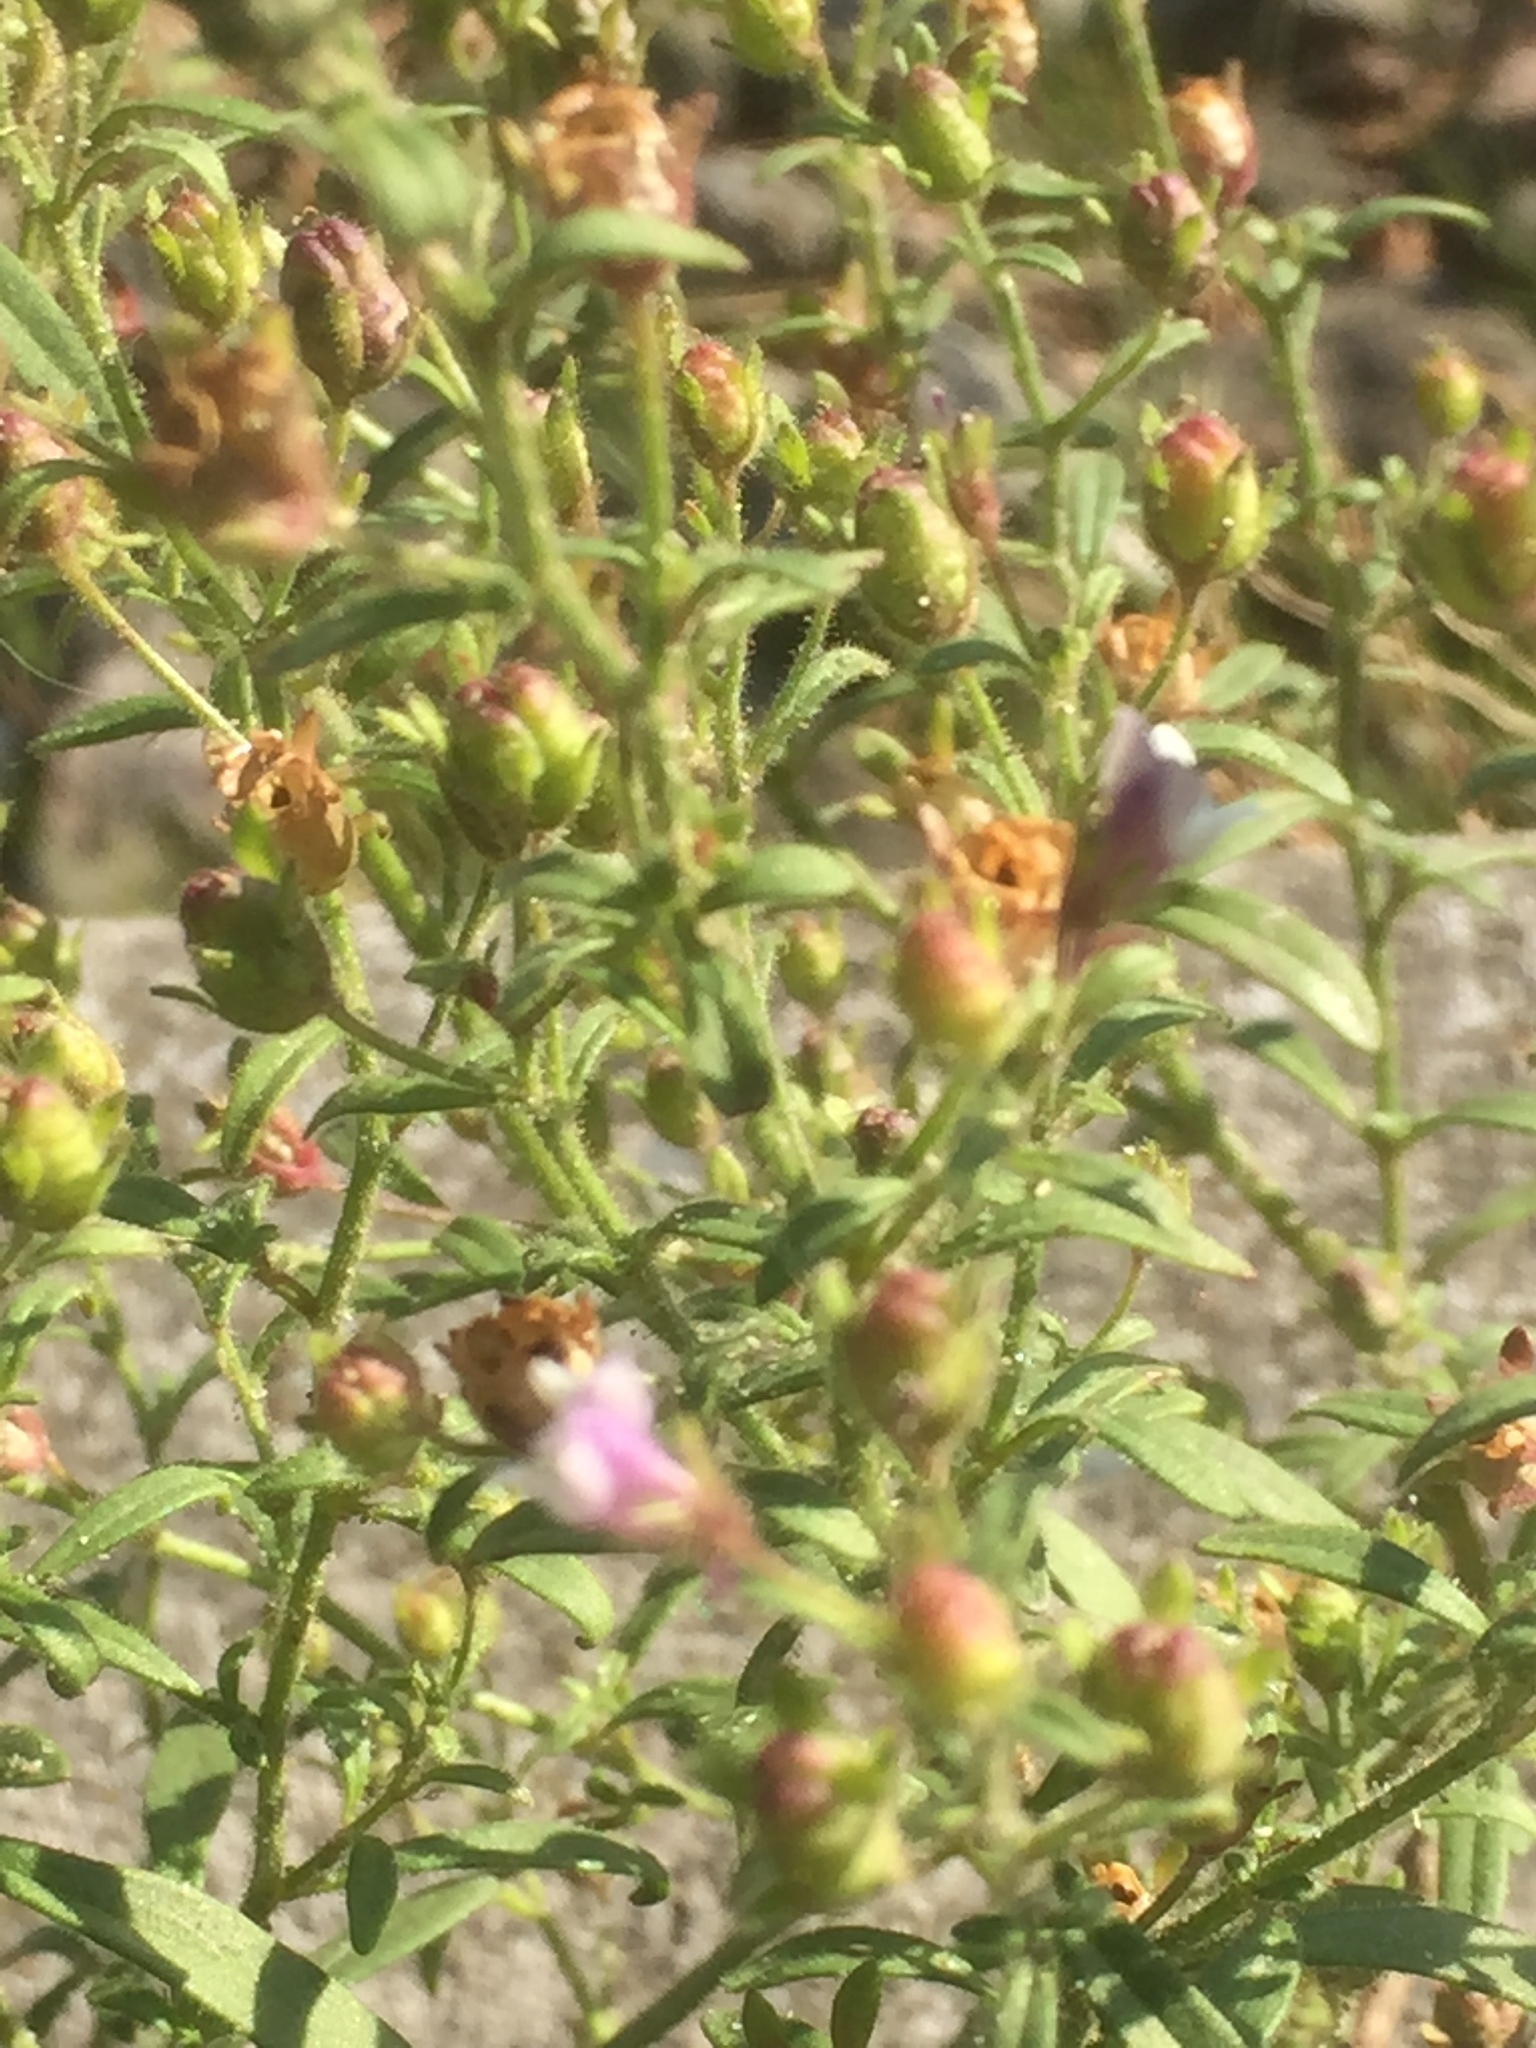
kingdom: Plantae
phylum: Tracheophyta
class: Magnoliopsida
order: Lamiales
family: Plantaginaceae
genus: Chaenorhinum
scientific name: Chaenorhinum minus
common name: Dwarf snapdragon
